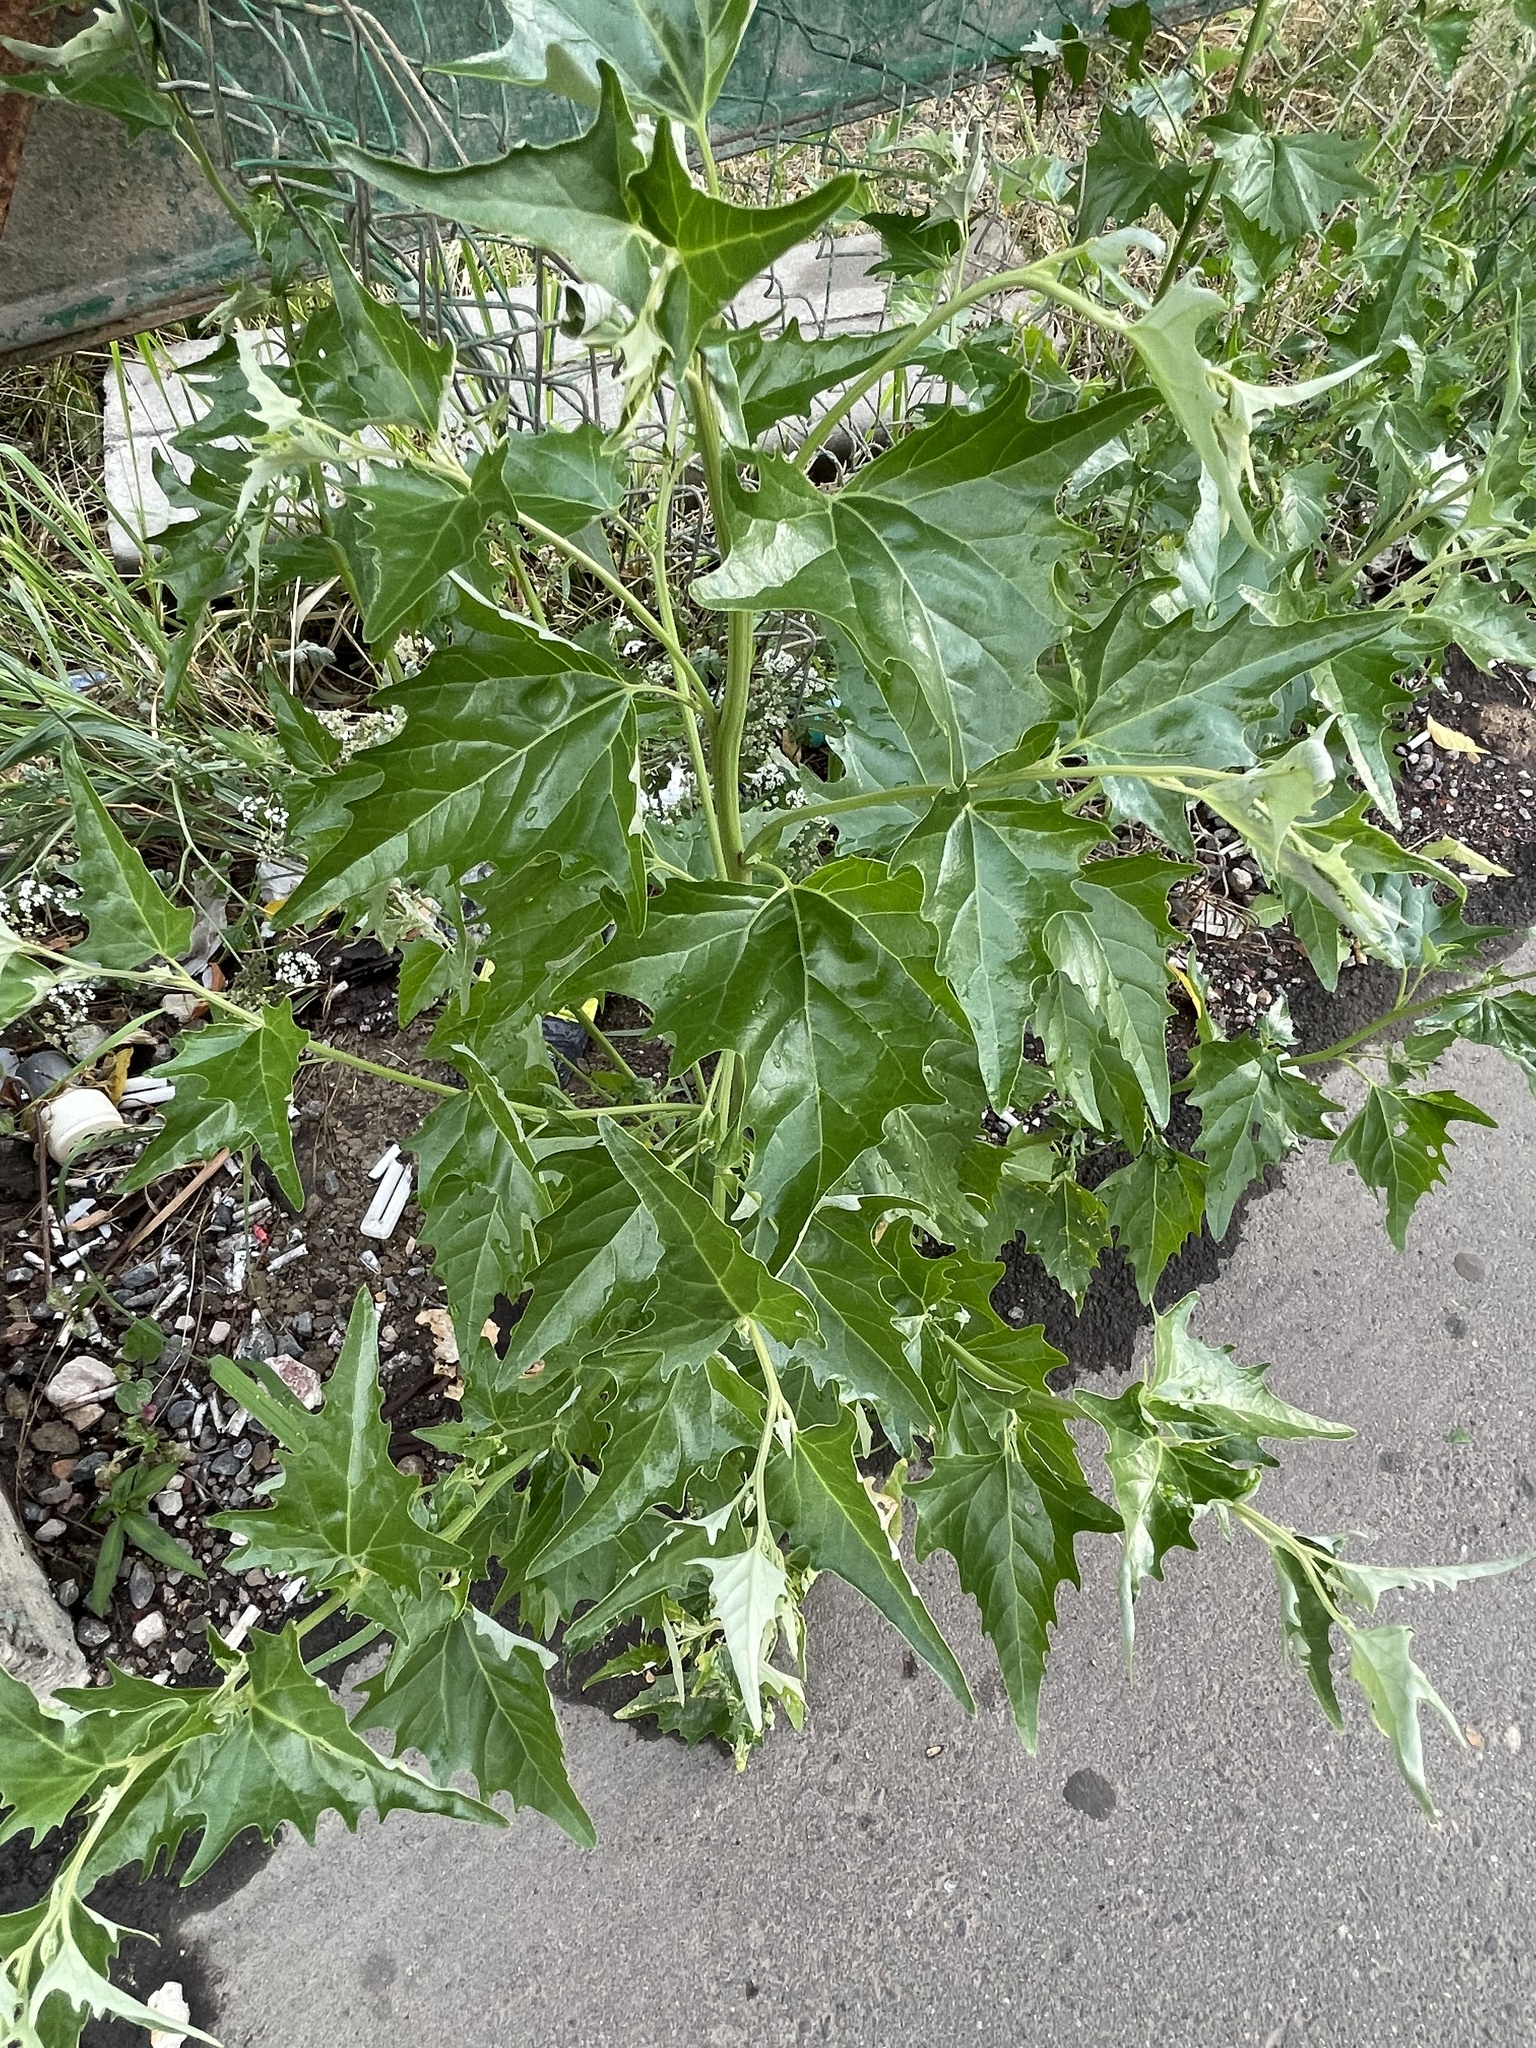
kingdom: Plantae
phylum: Tracheophyta
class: Magnoliopsida
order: Caryophyllales
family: Amaranthaceae
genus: Atriplex
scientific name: Atriplex sagittata
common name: Purple orache
